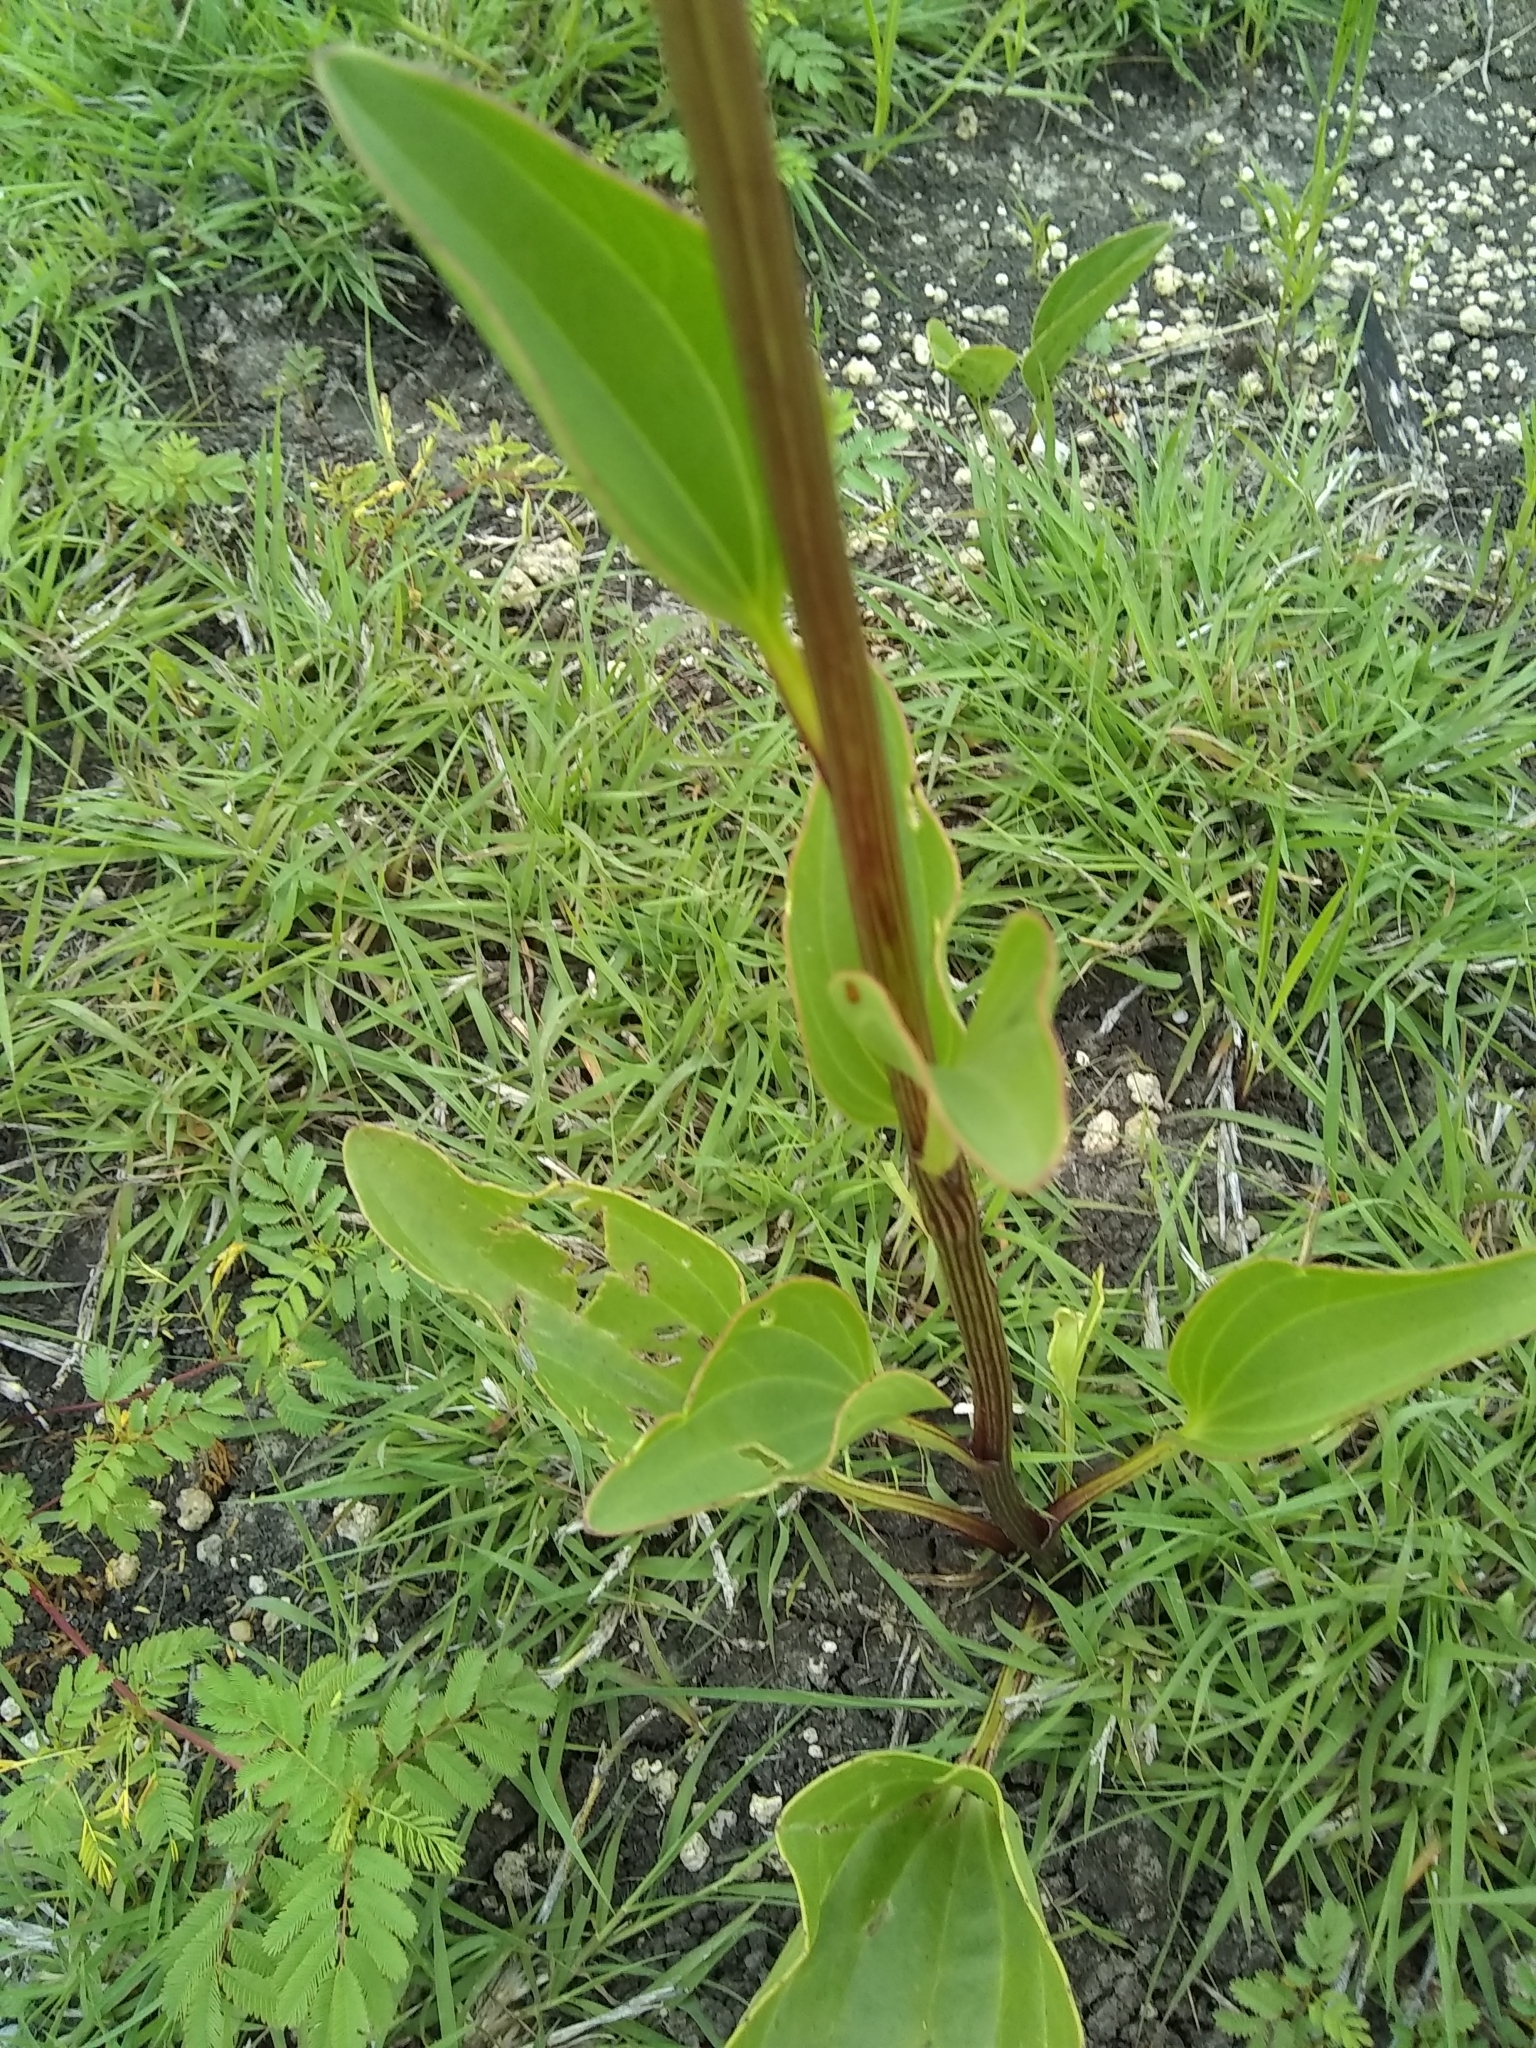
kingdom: Plantae
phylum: Tracheophyta
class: Magnoliopsida
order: Asterales
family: Asteraceae
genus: Arnoglossum
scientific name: Arnoglossum plantagineum
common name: Groove-stemmed indian-plantain
